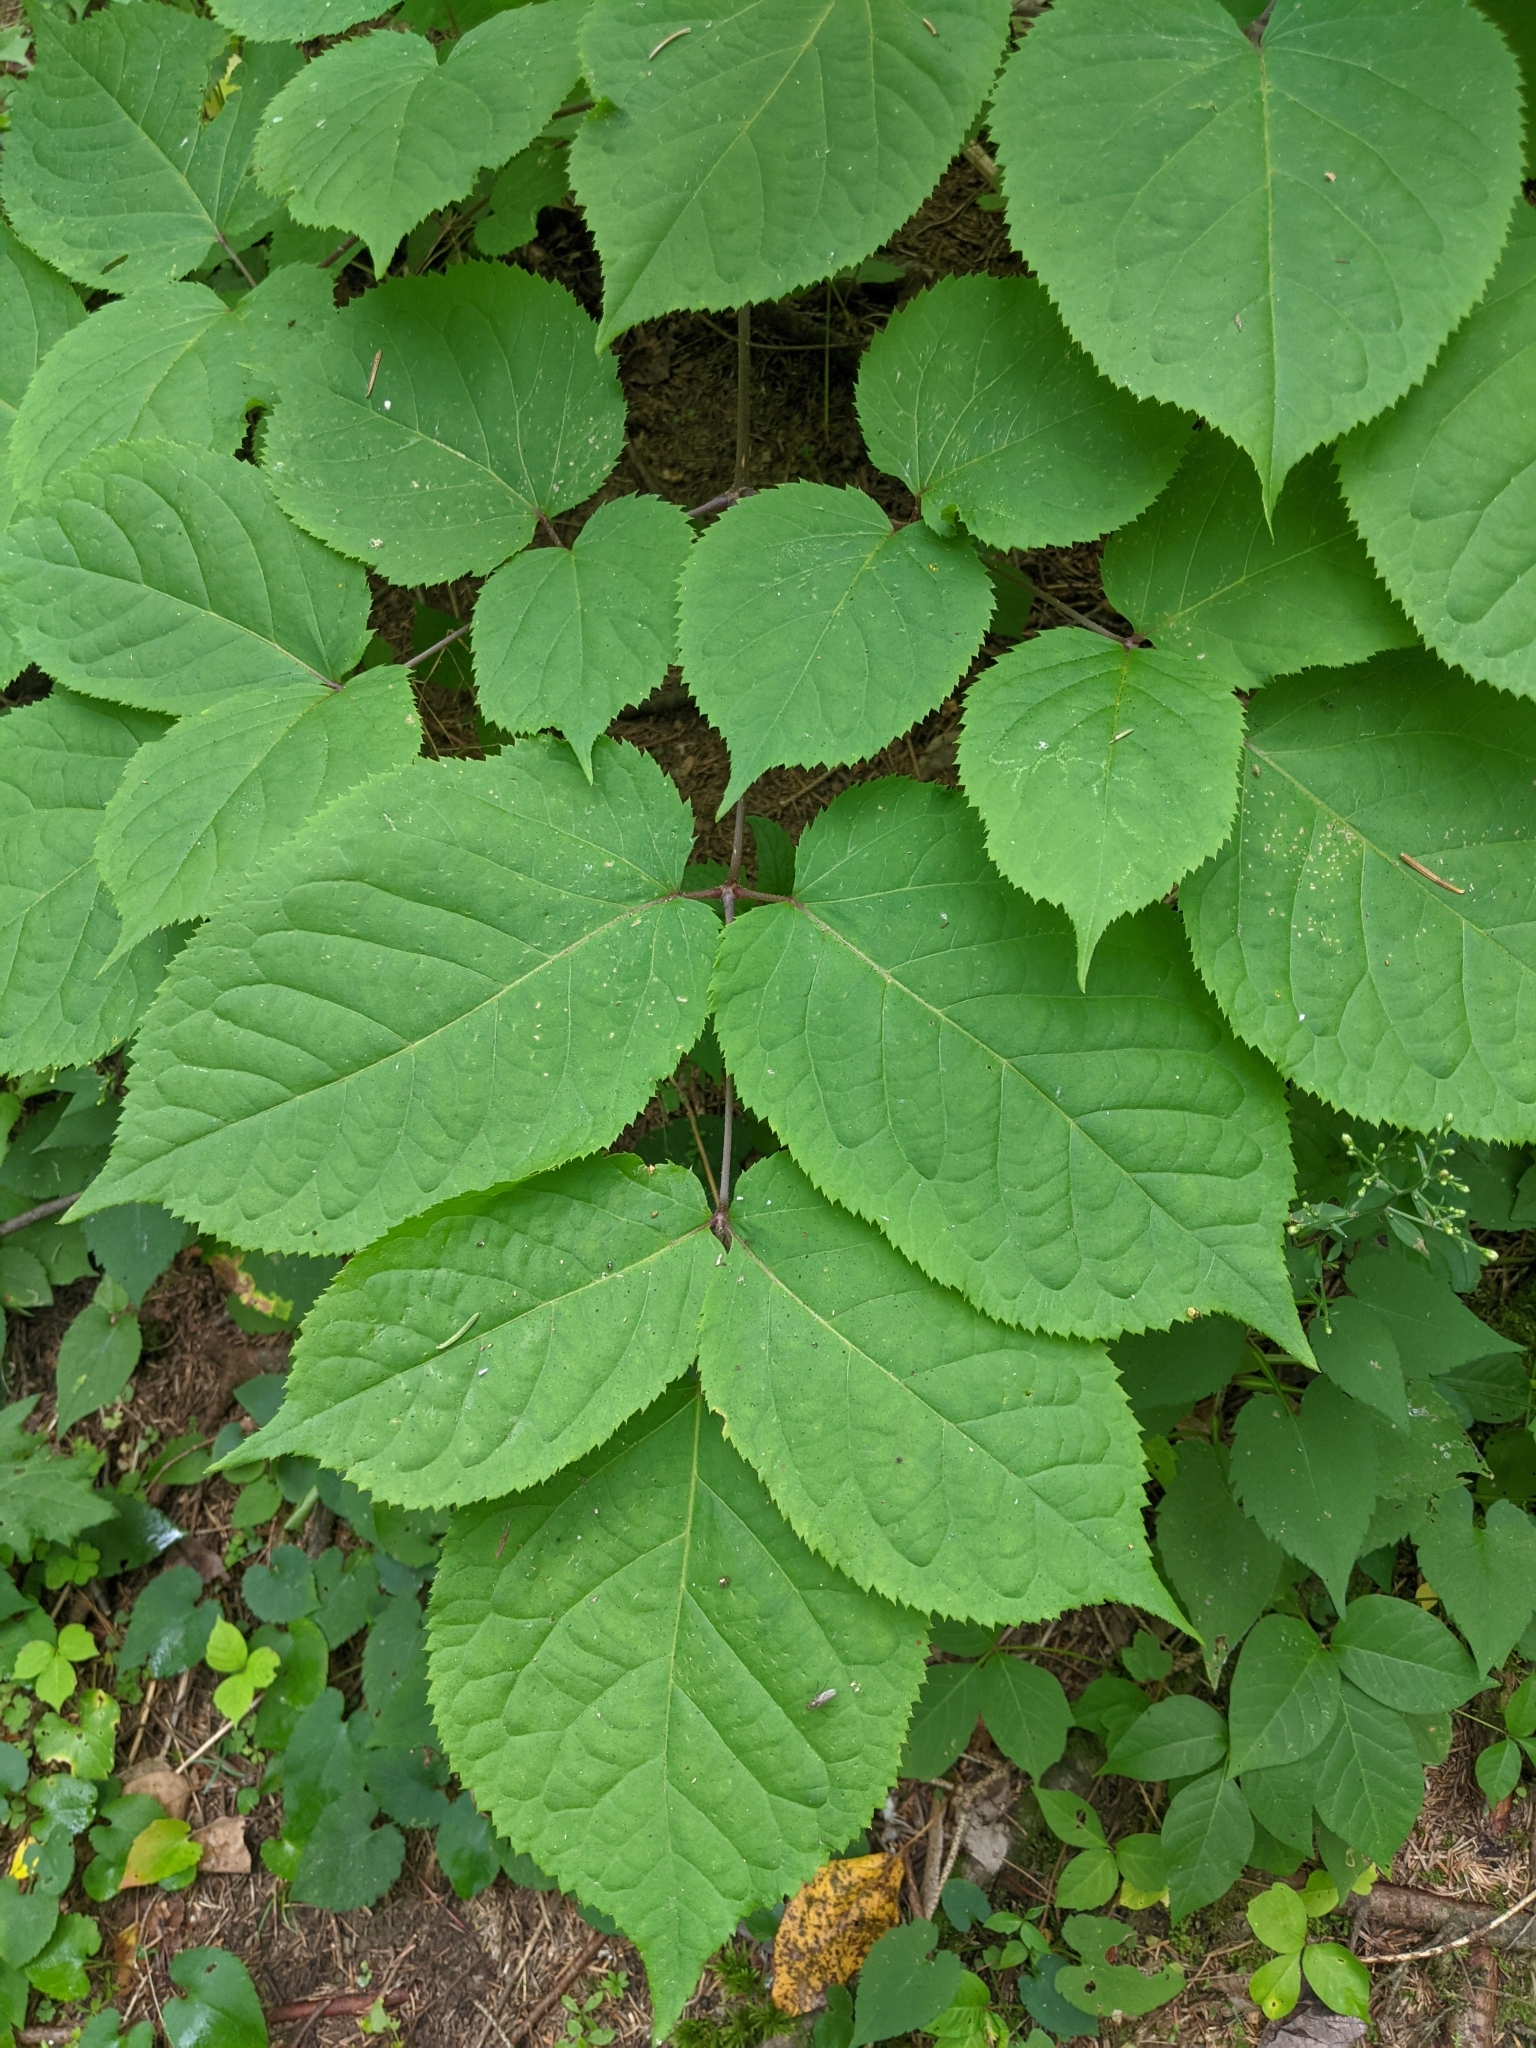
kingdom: Plantae
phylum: Tracheophyta
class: Magnoliopsida
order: Apiales
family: Araliaceae
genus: Aralia
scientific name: Aralia racemosa
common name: American-spikenard
